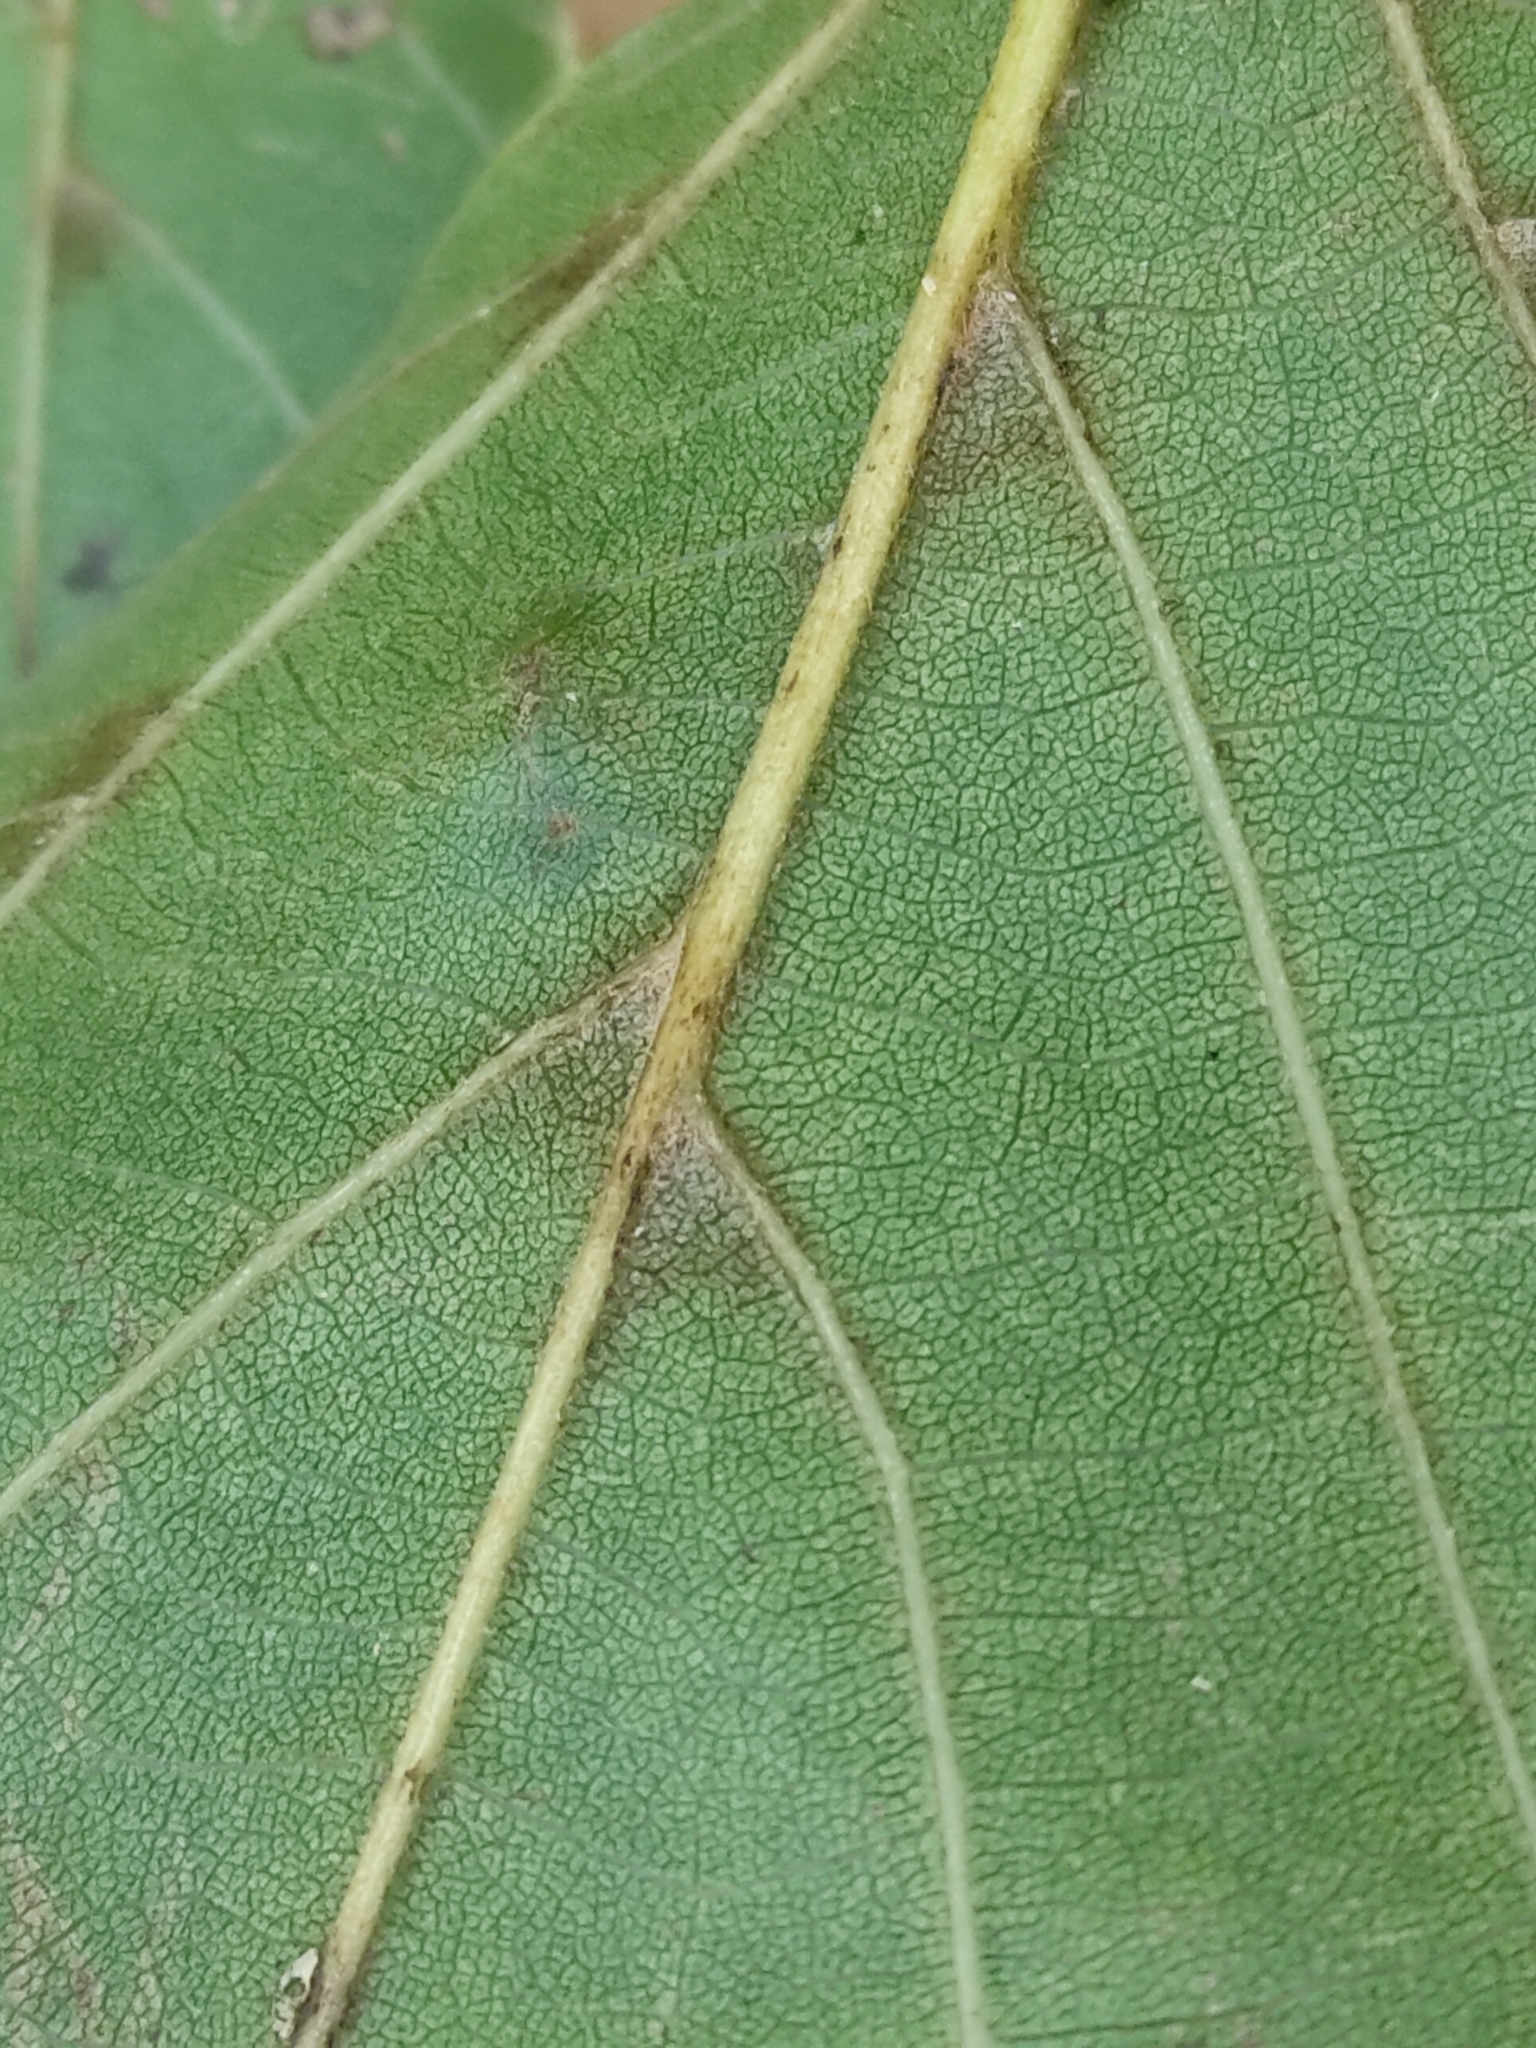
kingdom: Plantae
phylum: Tracheophyta
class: Magnoliopsida
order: Boraginales
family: Cordiaceae
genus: Cordia
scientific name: Cordia dichotoma
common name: Fragrant manjack
